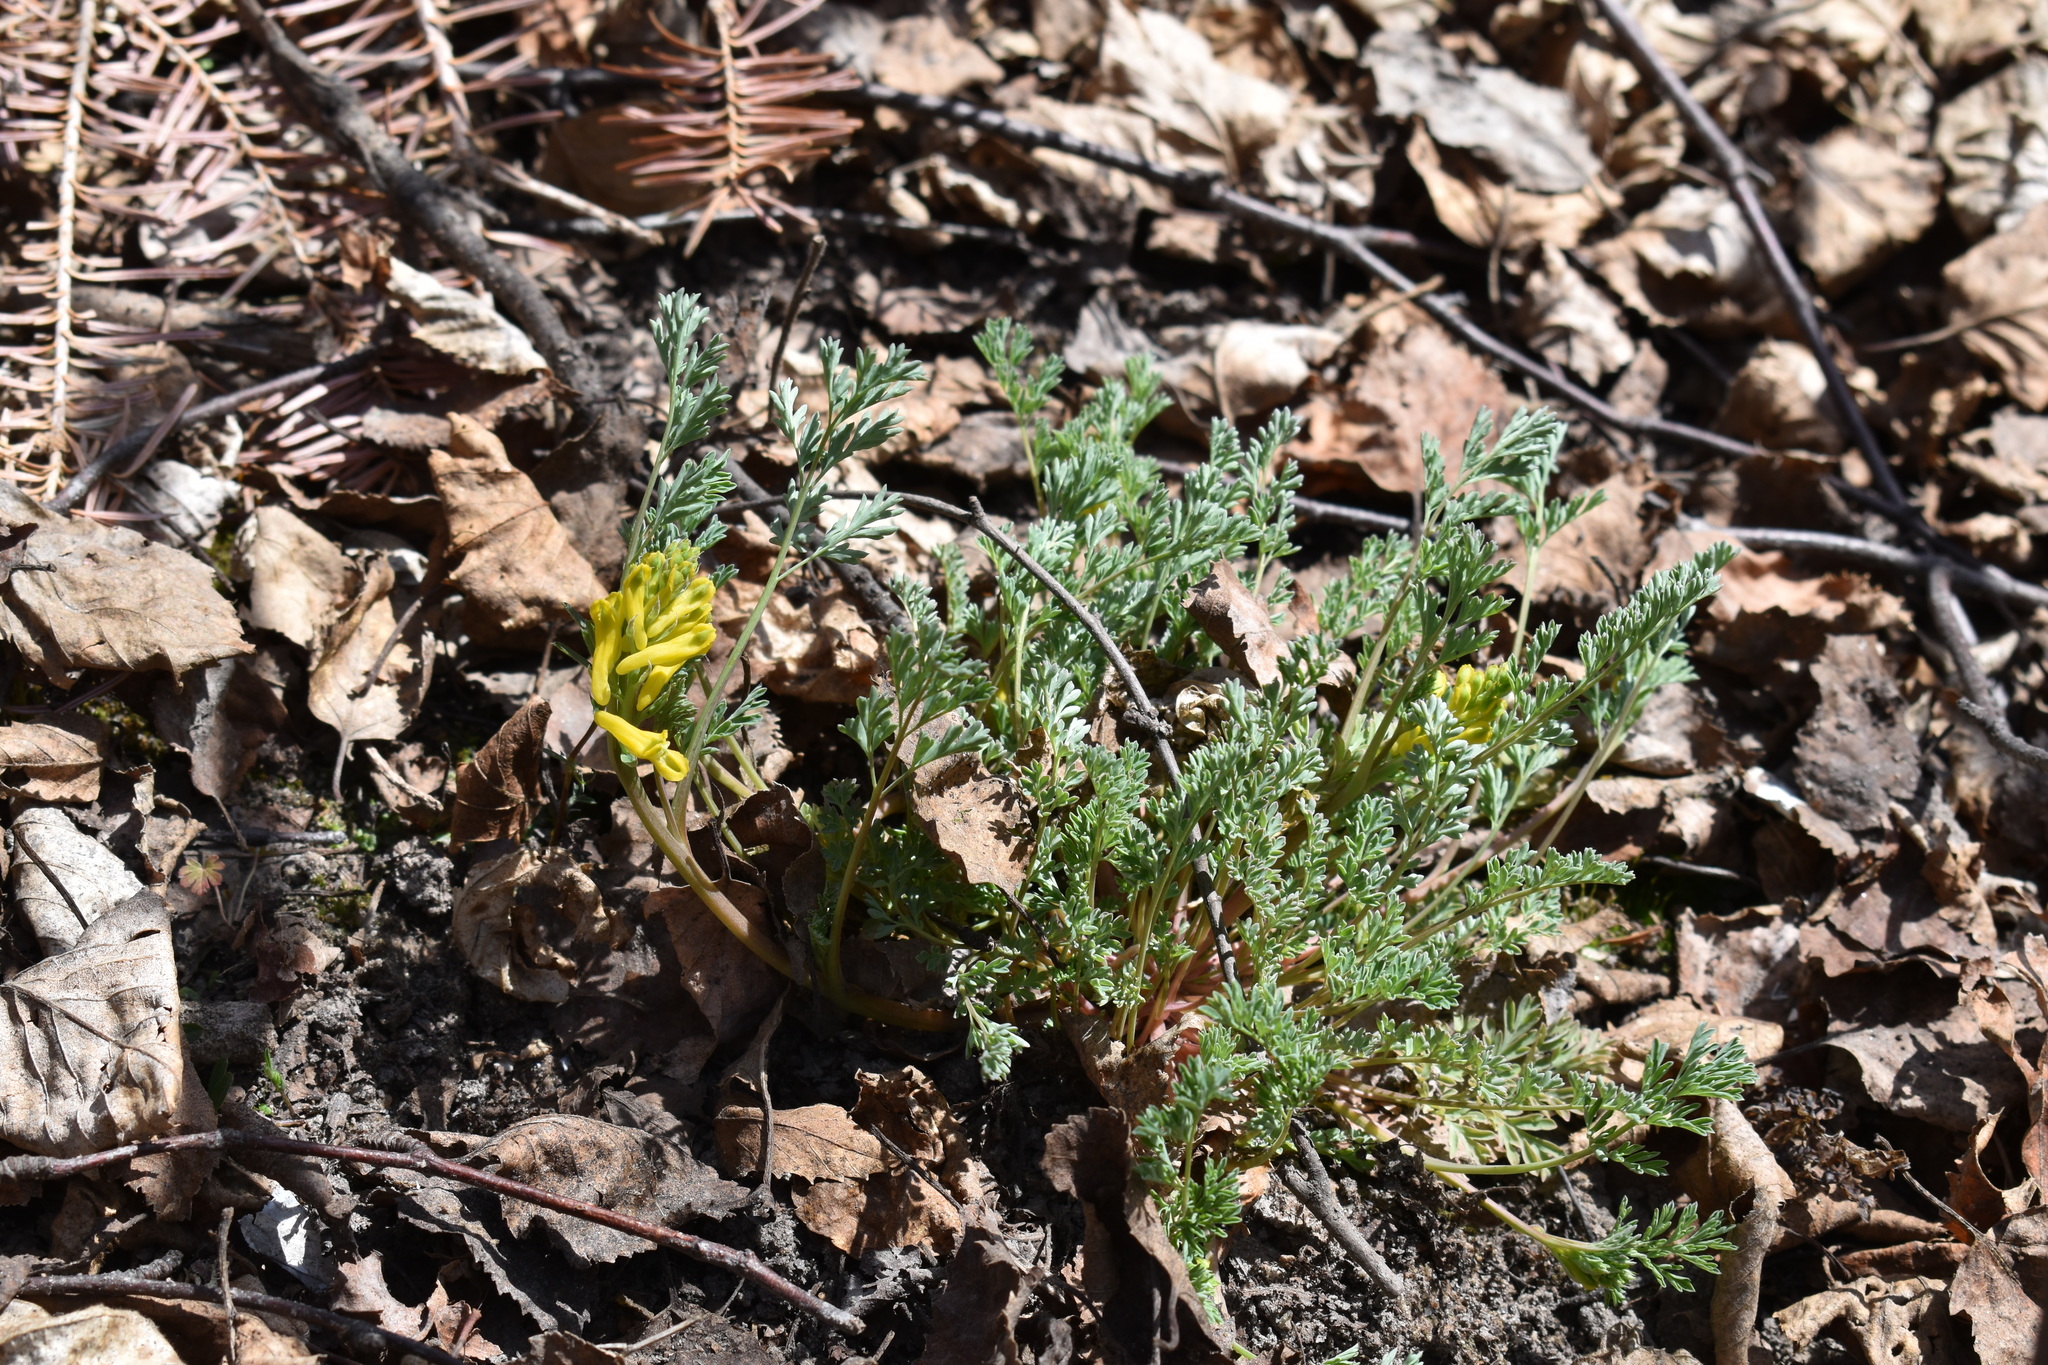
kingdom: Plantae
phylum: Tracheophyta
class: Magnoliopsida
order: Ranunculales
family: Papaveraceae
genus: Corydalis
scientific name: Corydalis aurea
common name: Golden corydalis
